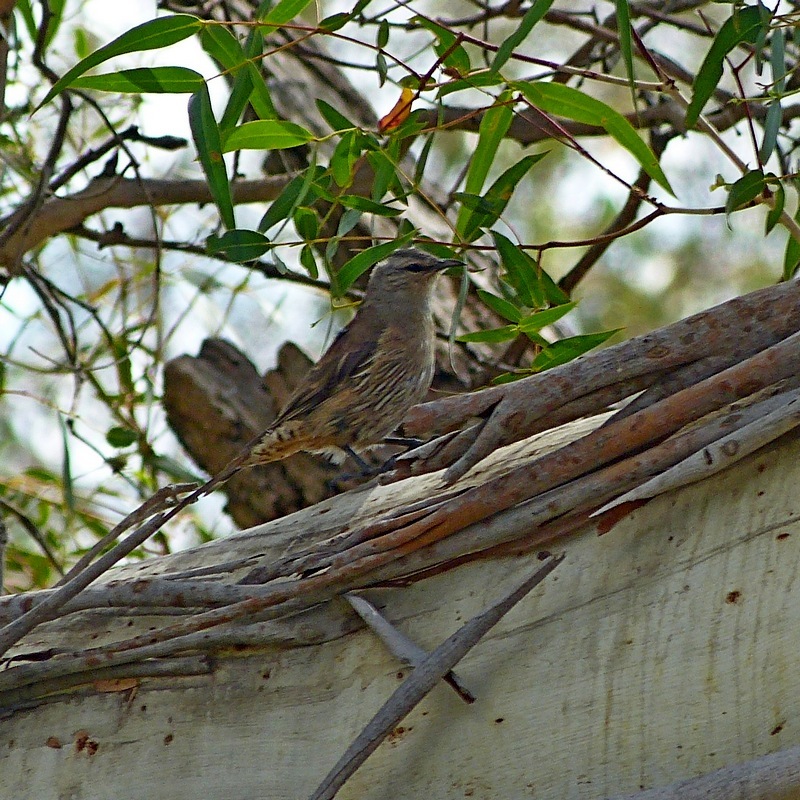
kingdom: Animalia
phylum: Chordata
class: Aves
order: Passeriformes
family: Climacteridae
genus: Climacteris
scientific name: Climacteris picumnus
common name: Brown treecreeper
